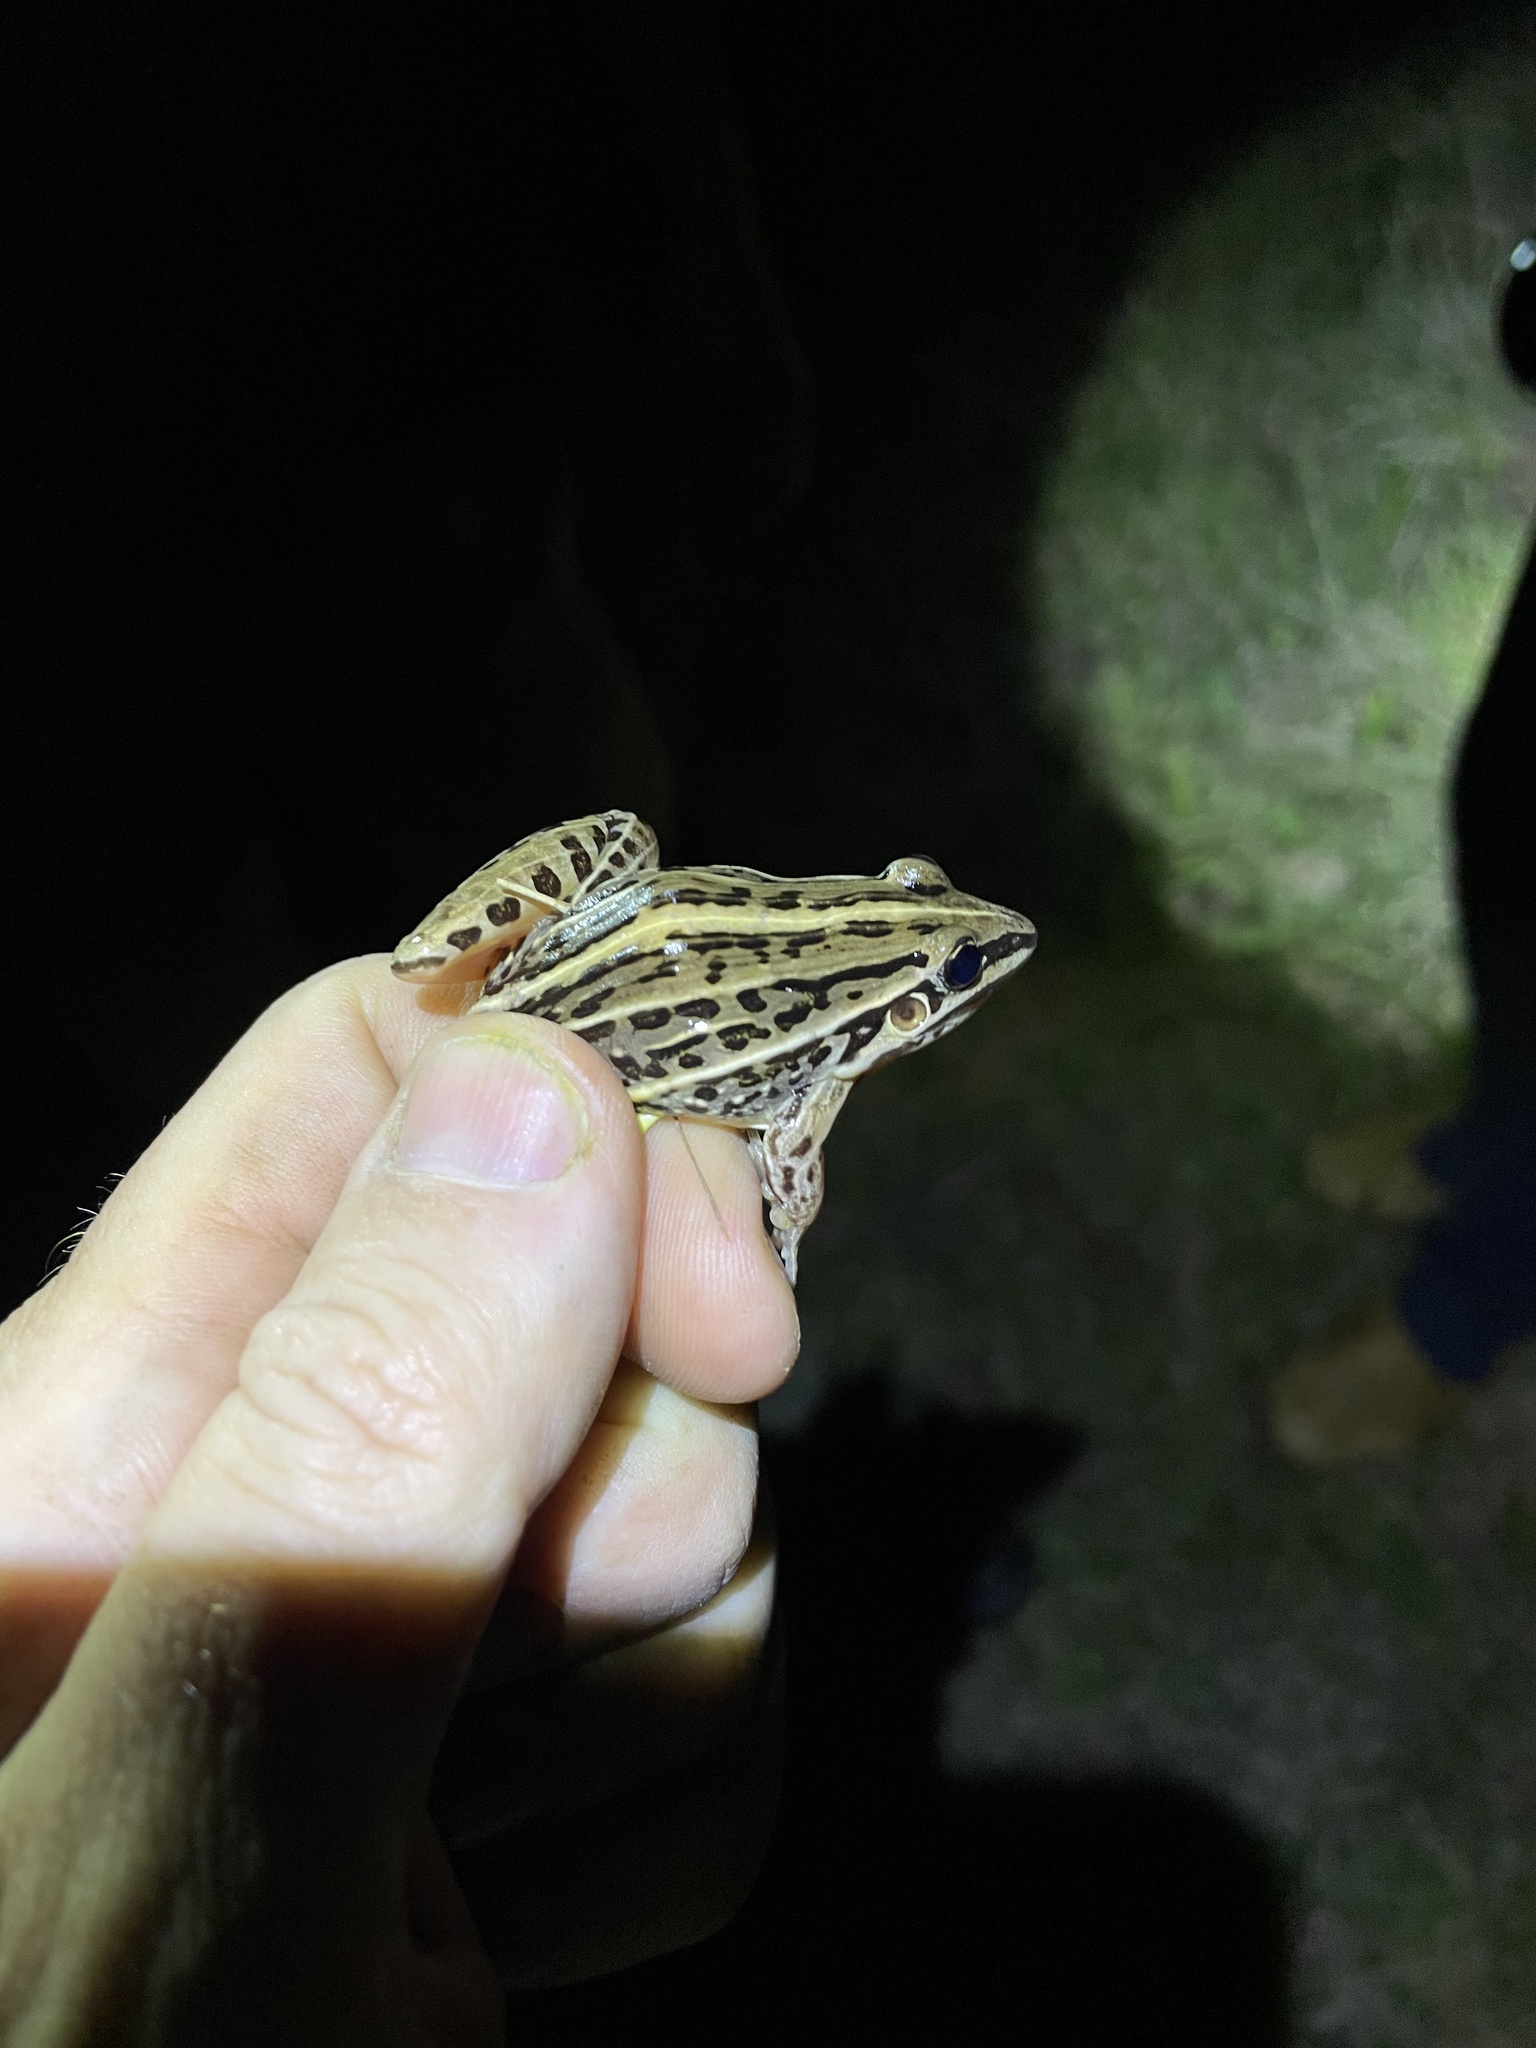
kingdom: Animalia
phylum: Chordata
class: Amphibia
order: Anura
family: Leptodactylidae
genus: Leptodactylus
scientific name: Leptodactylus gracilis
